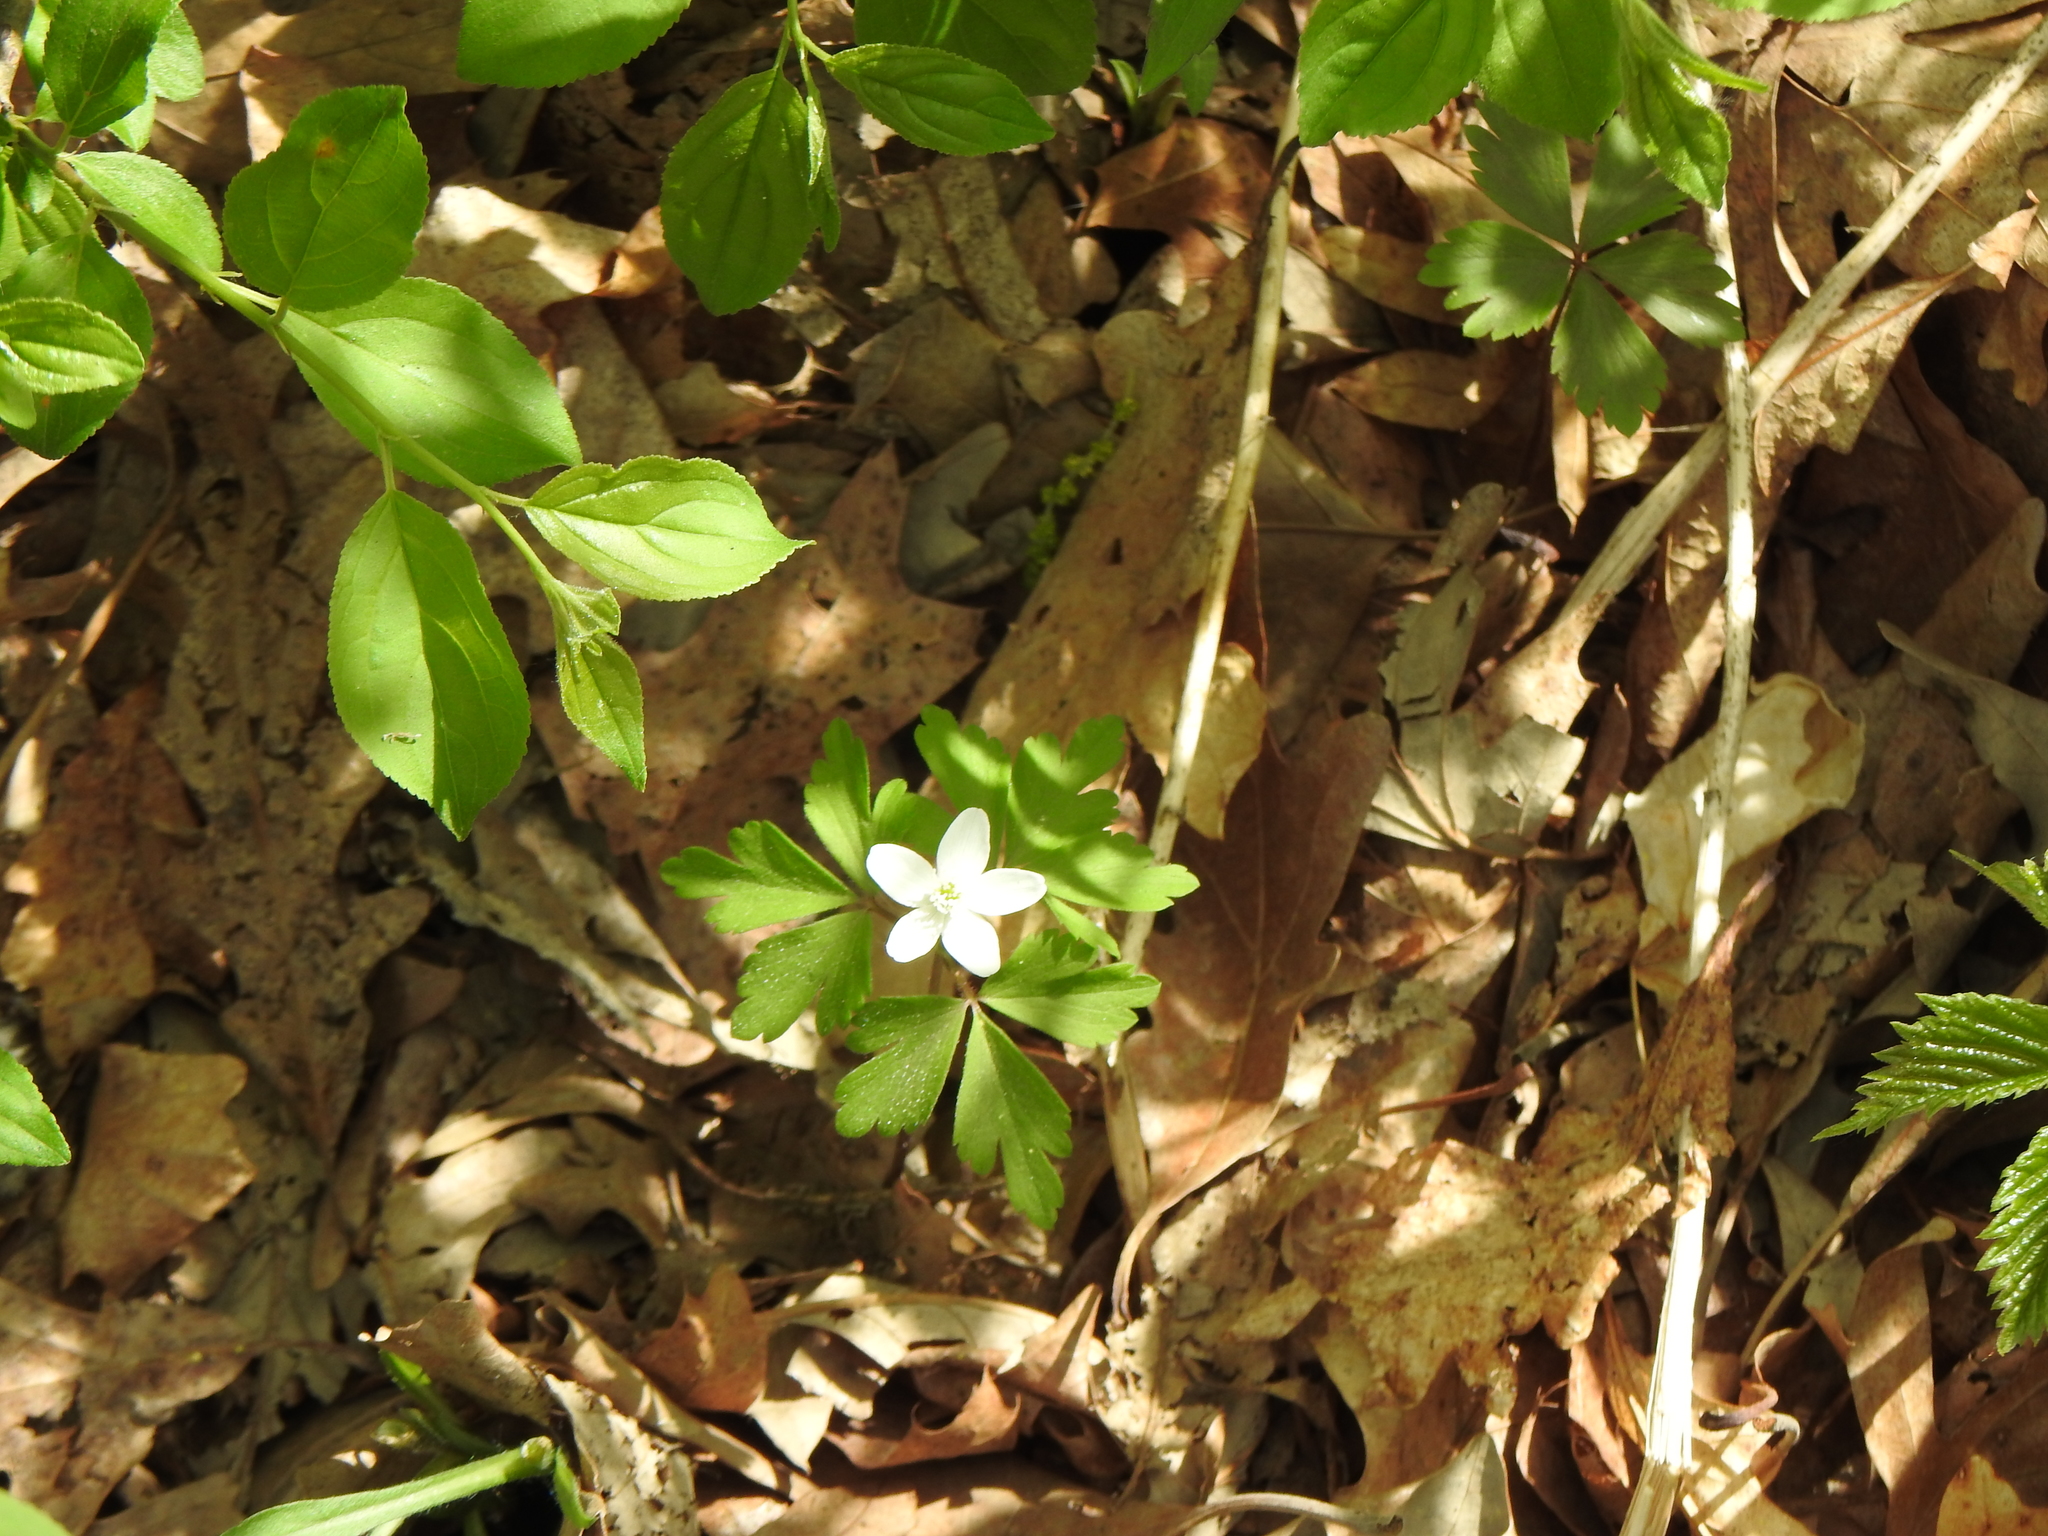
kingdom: Plantae
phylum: Tracheophyta
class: Magnoliopsida
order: Ranunculales
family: Ranunculaceae
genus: Anemone
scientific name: Anemone quinquefolia
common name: Wood anemone
